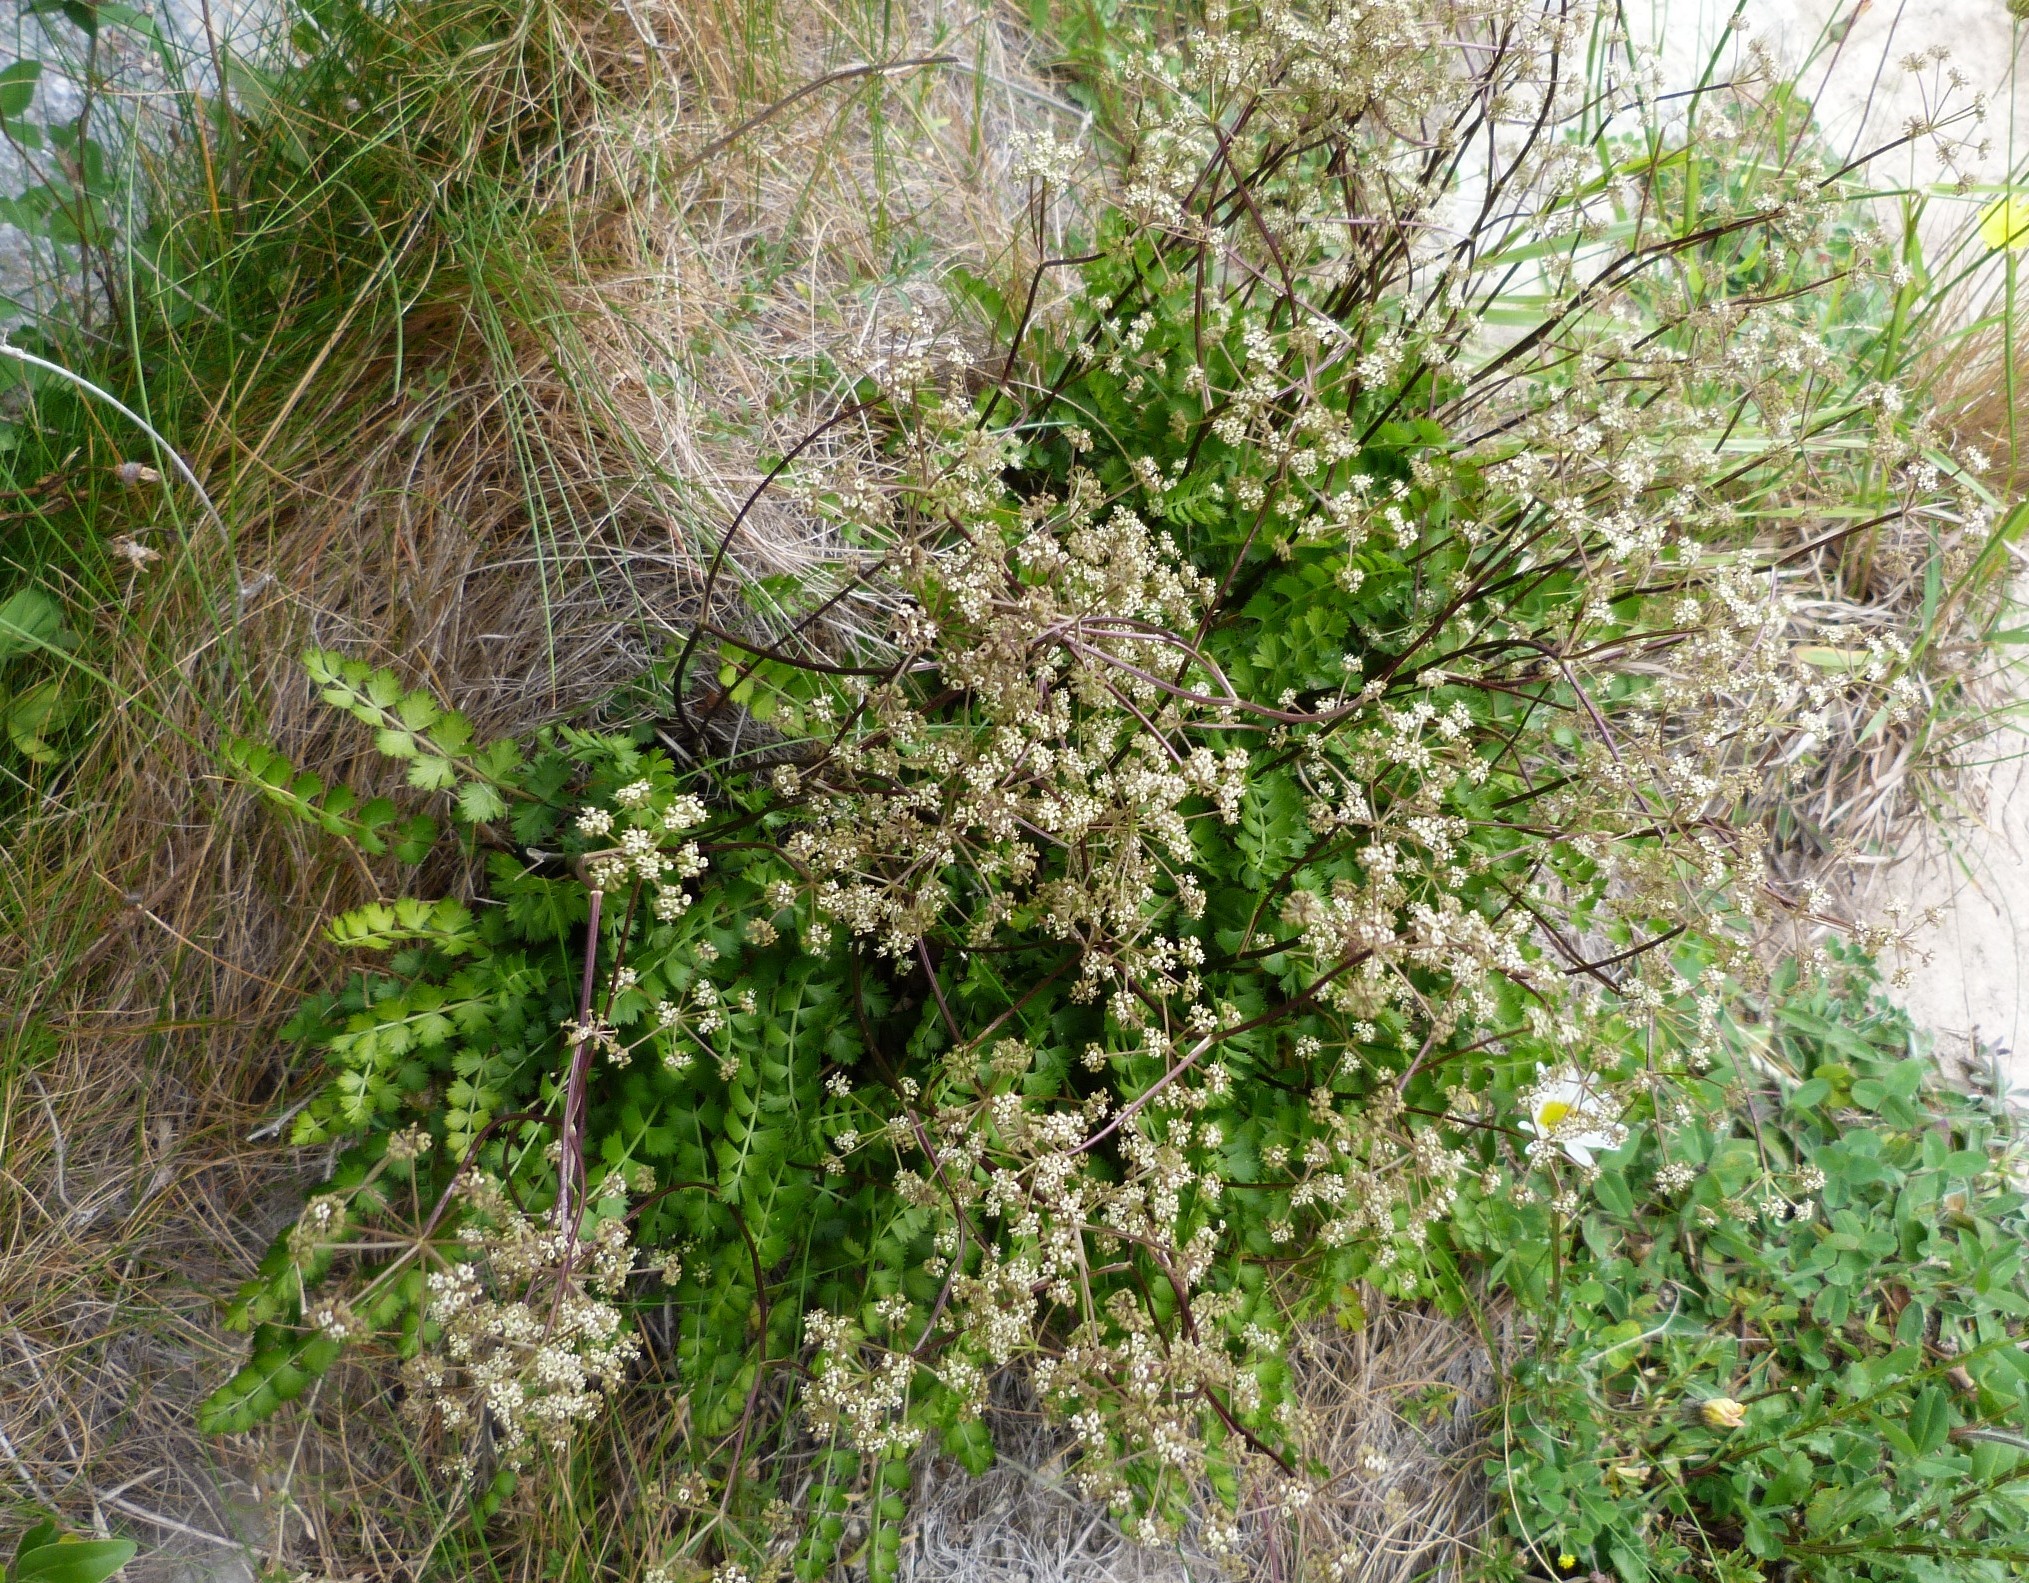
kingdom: Plantae
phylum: Tracheophyta
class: Magnoliopsida
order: Apiales
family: Apiaceae
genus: Anisotome
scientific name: Anisotome aromatica
